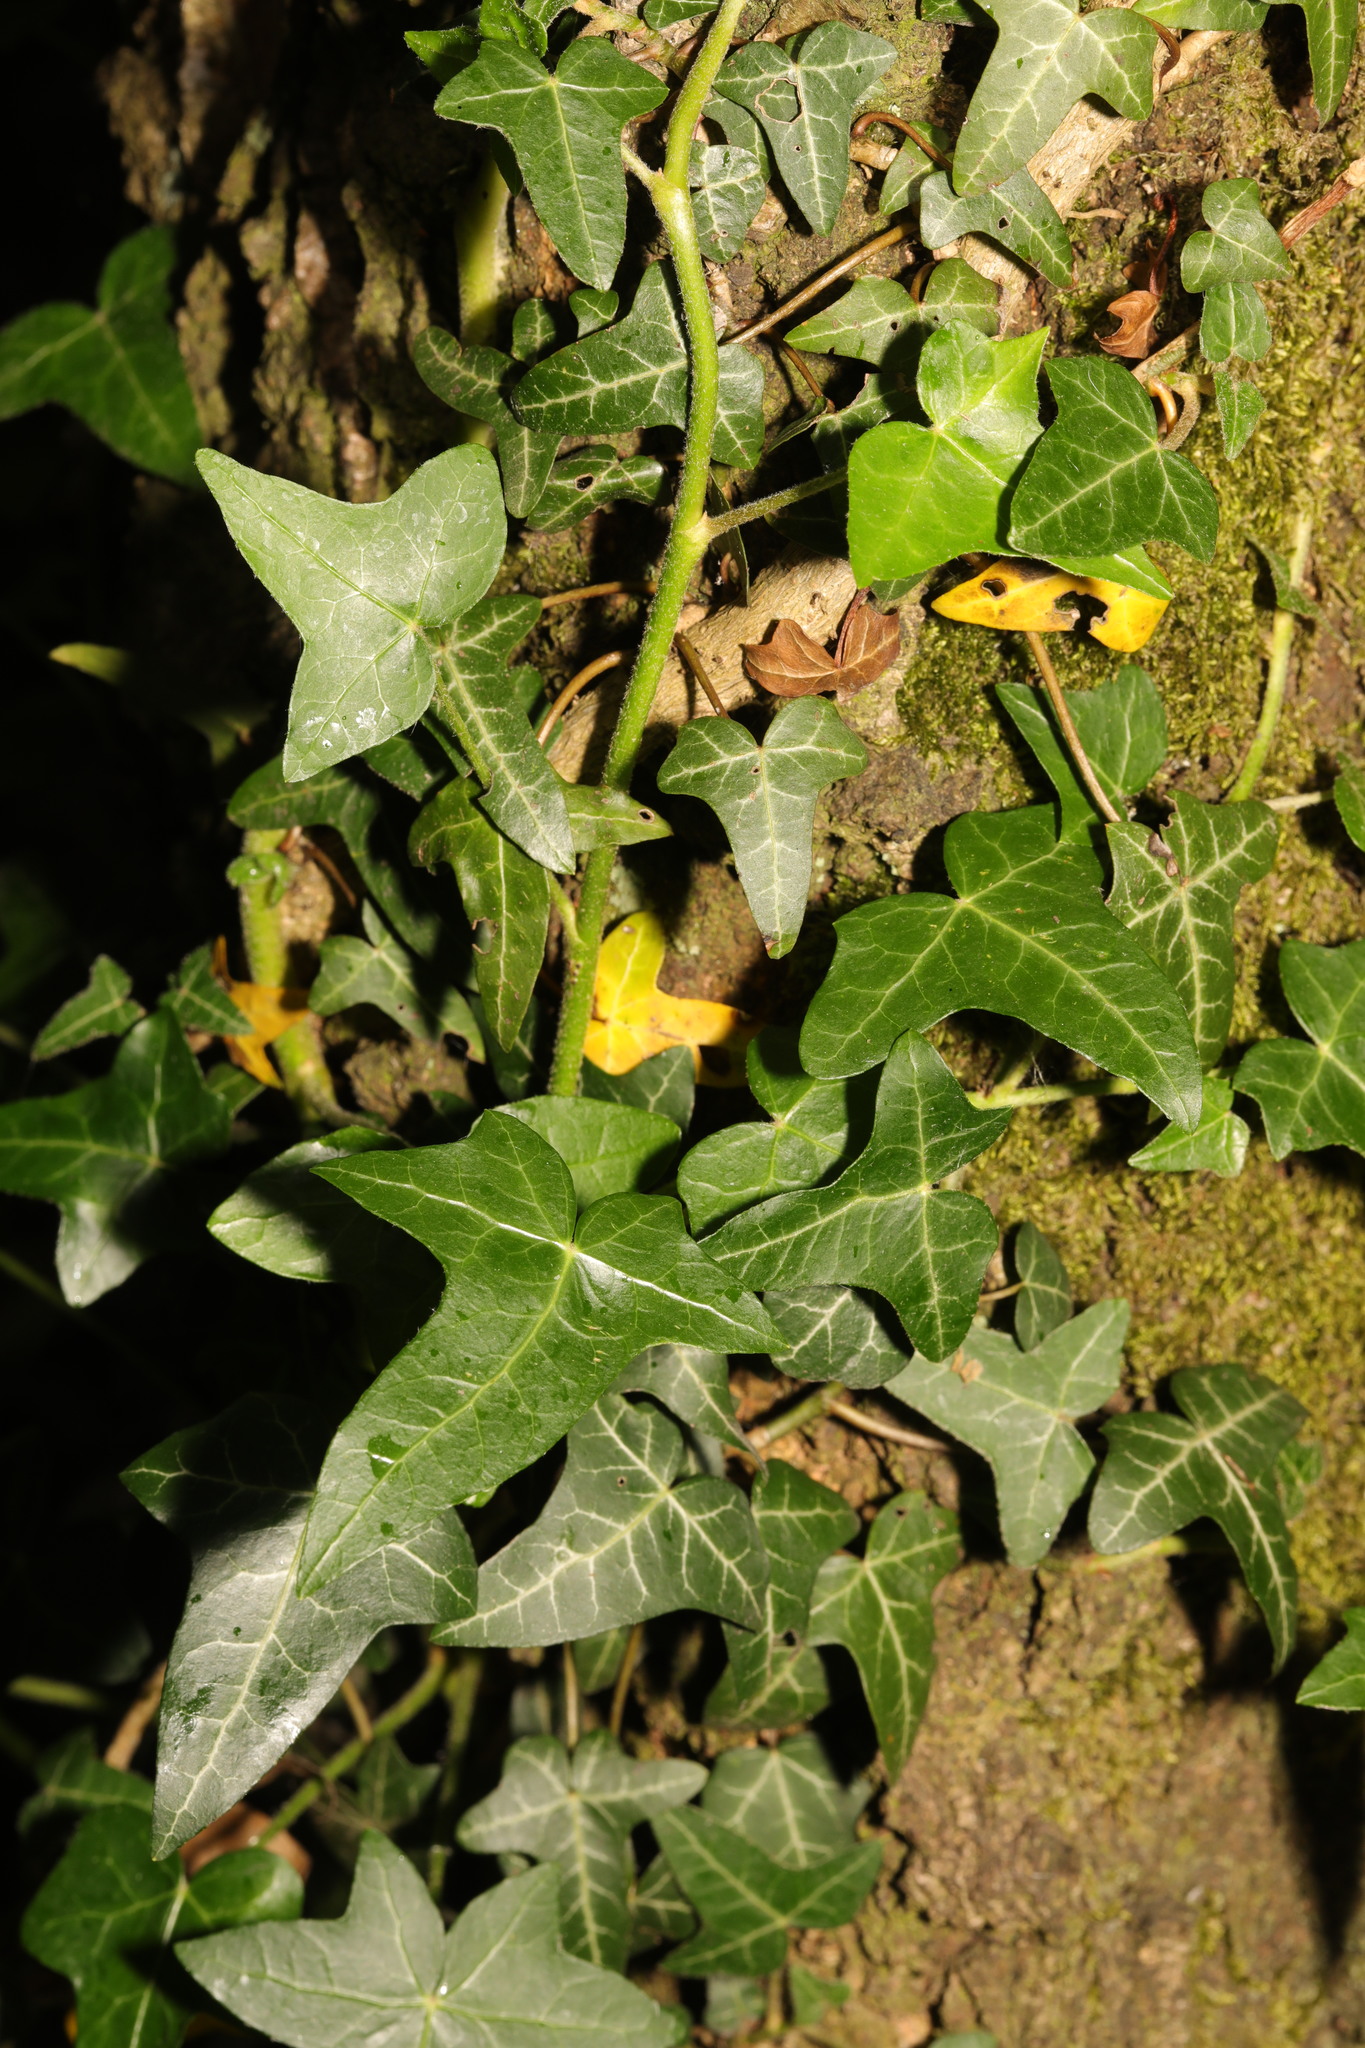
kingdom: Plantae
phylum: Tracheophyta
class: Magnoliopsida
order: Apiales
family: Araliaceae
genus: Hedera
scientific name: Hedera helix
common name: Ivy
